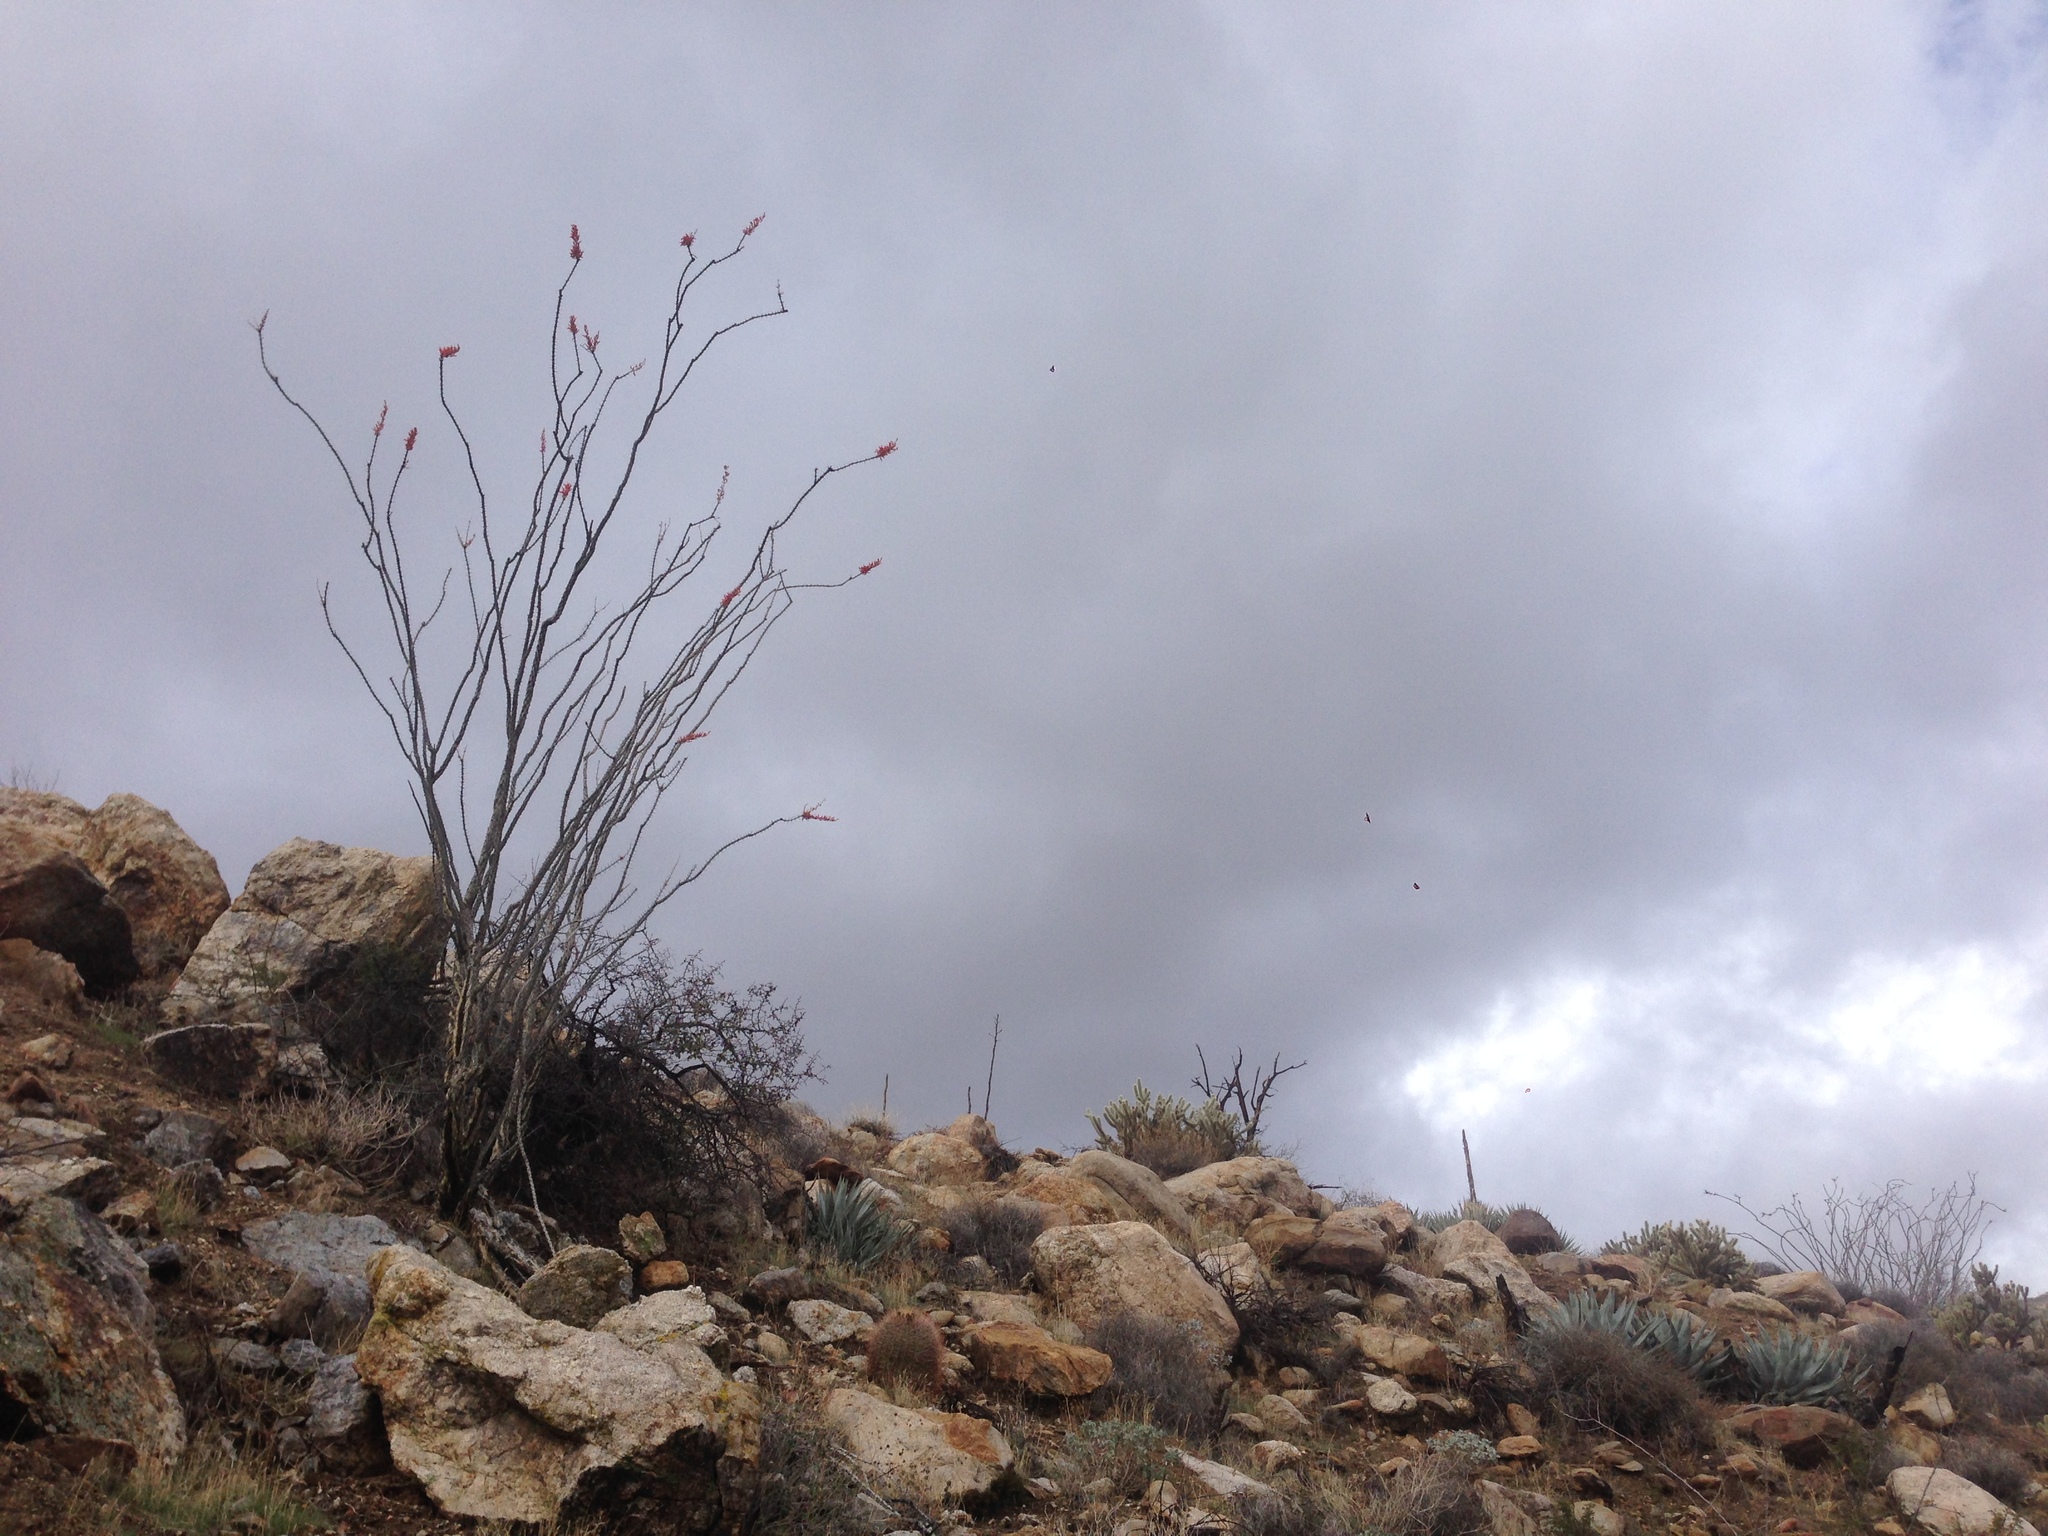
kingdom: Plantae
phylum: Tracheophyta
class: Magnoliopsida
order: Ericales
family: Fouquieriaceae
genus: Fouquieria
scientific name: Fouquieria splendens
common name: Vine-cactus
